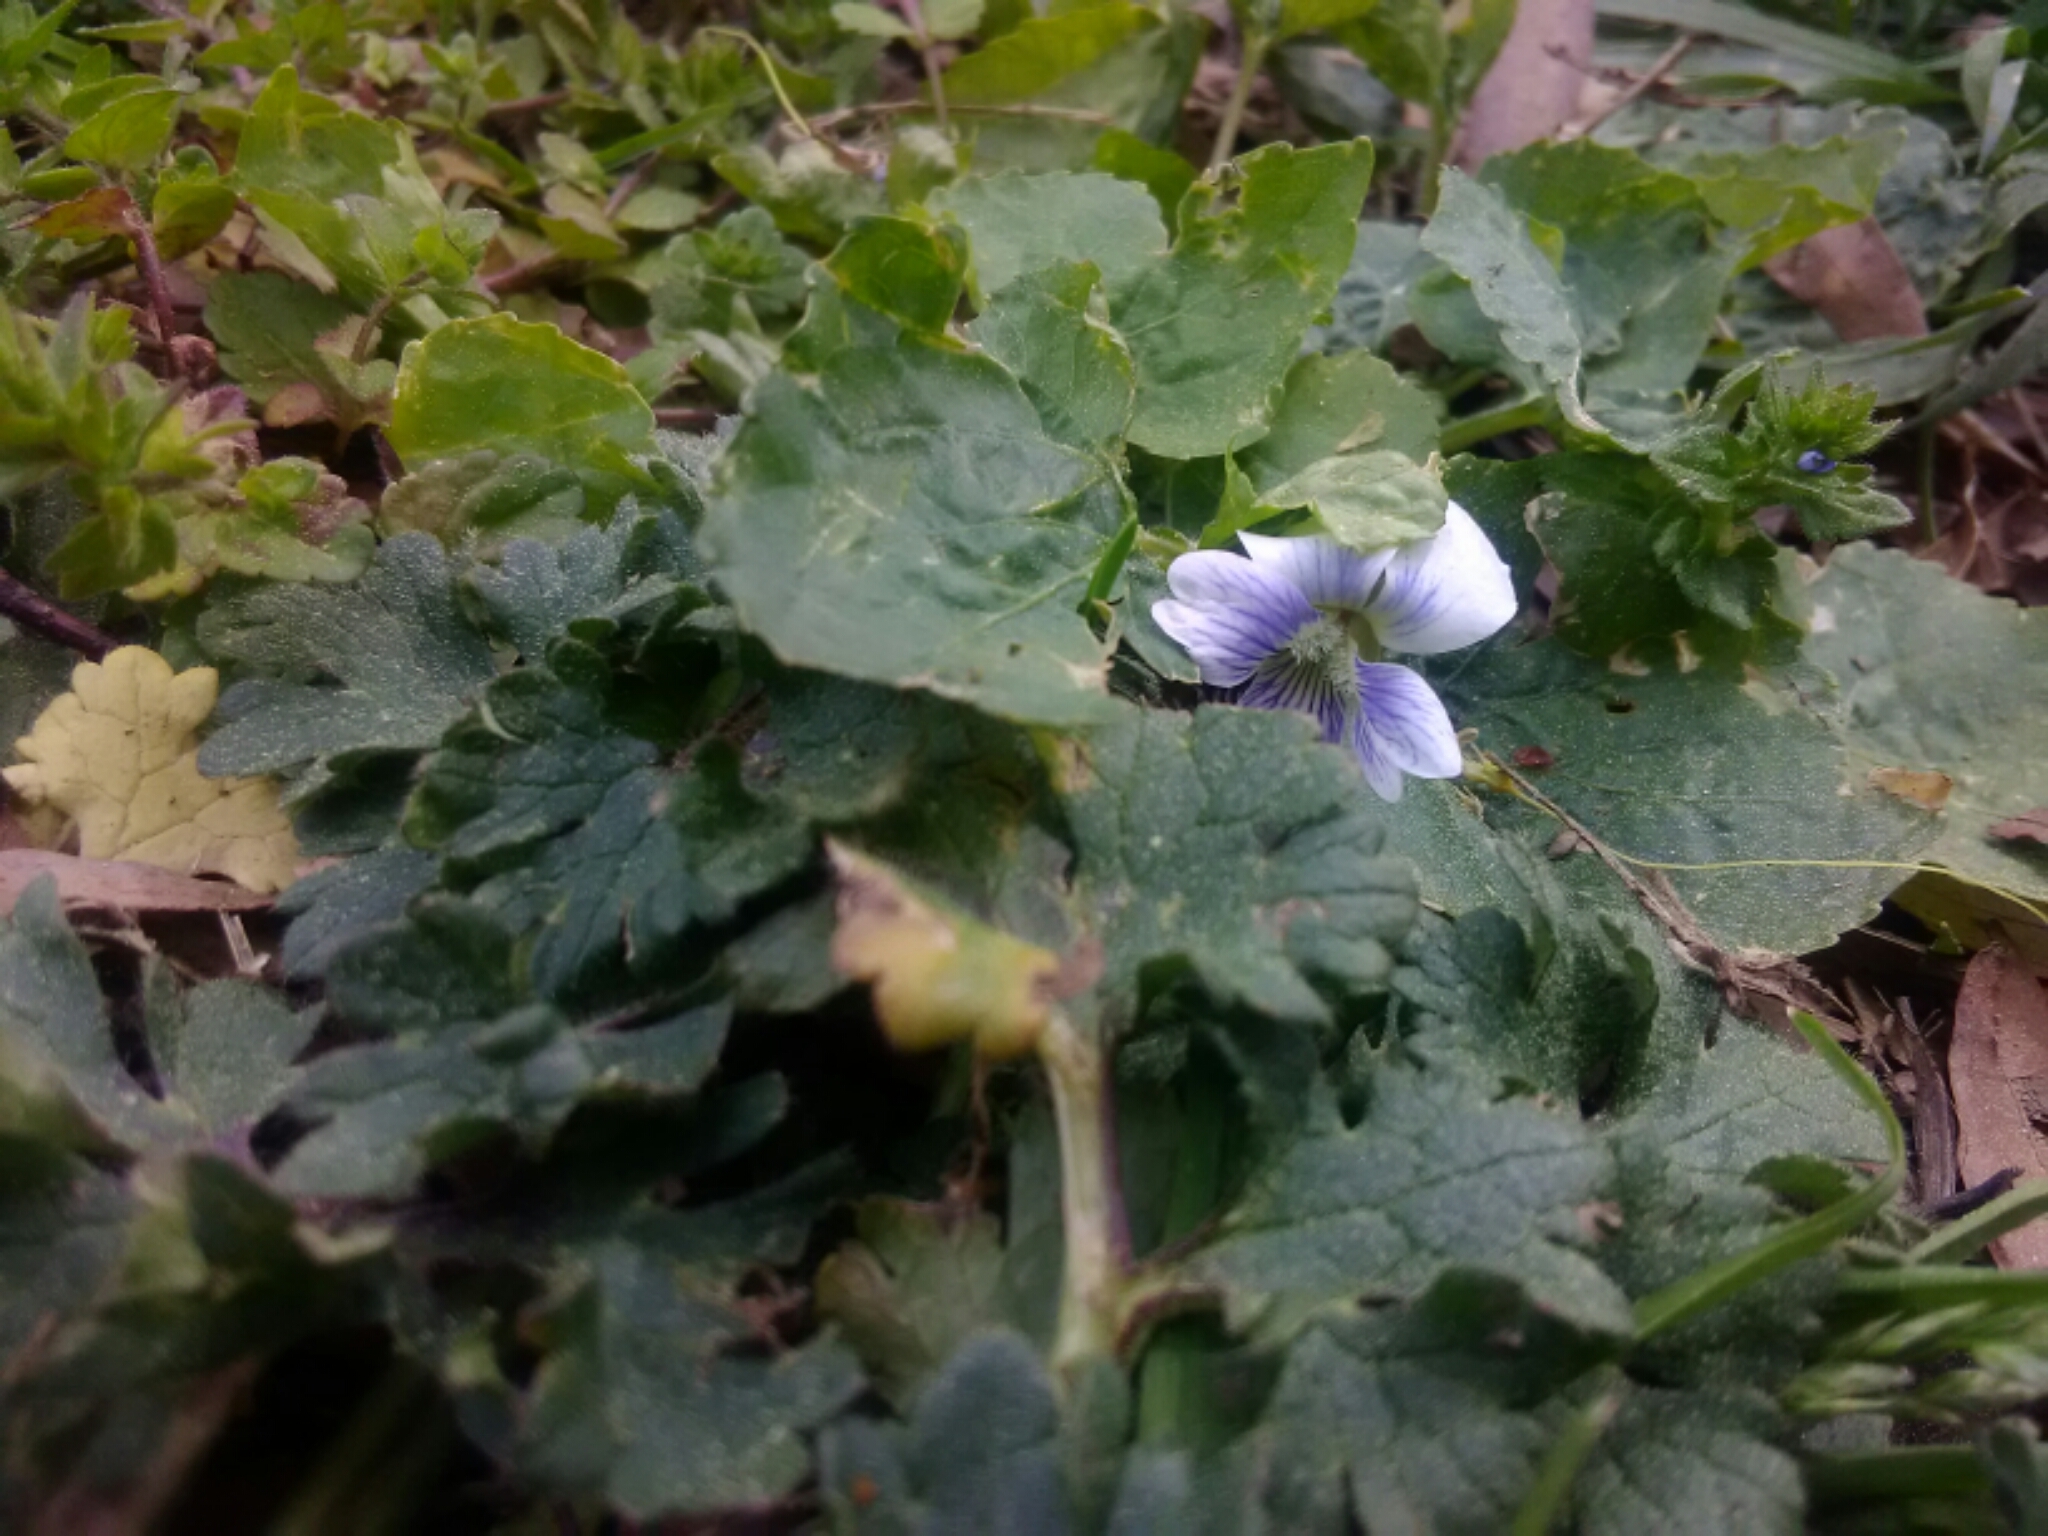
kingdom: Plantae
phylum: Tracheophyta
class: Magnoliopsida
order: Malpighiales
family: Violaceae
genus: Viola
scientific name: Viola sororia
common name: Dooryard violet
